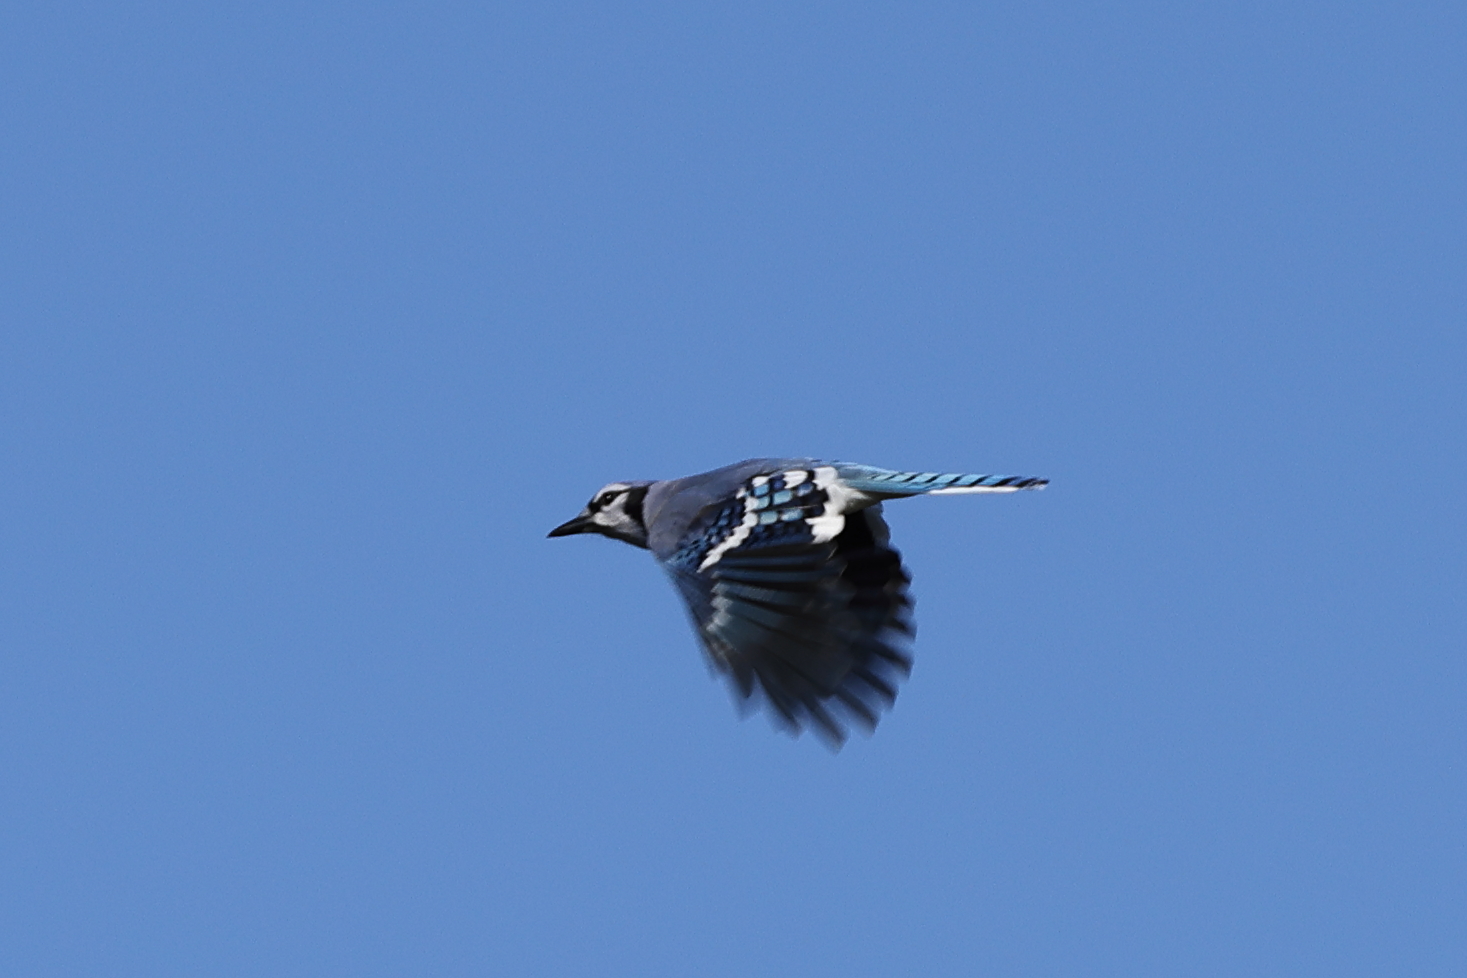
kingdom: Animalia
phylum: Chordata
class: Aves
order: Passeriformes
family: Corvidae
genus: Cyanocitta
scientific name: Cyanocitta cristata
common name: Blue jay
